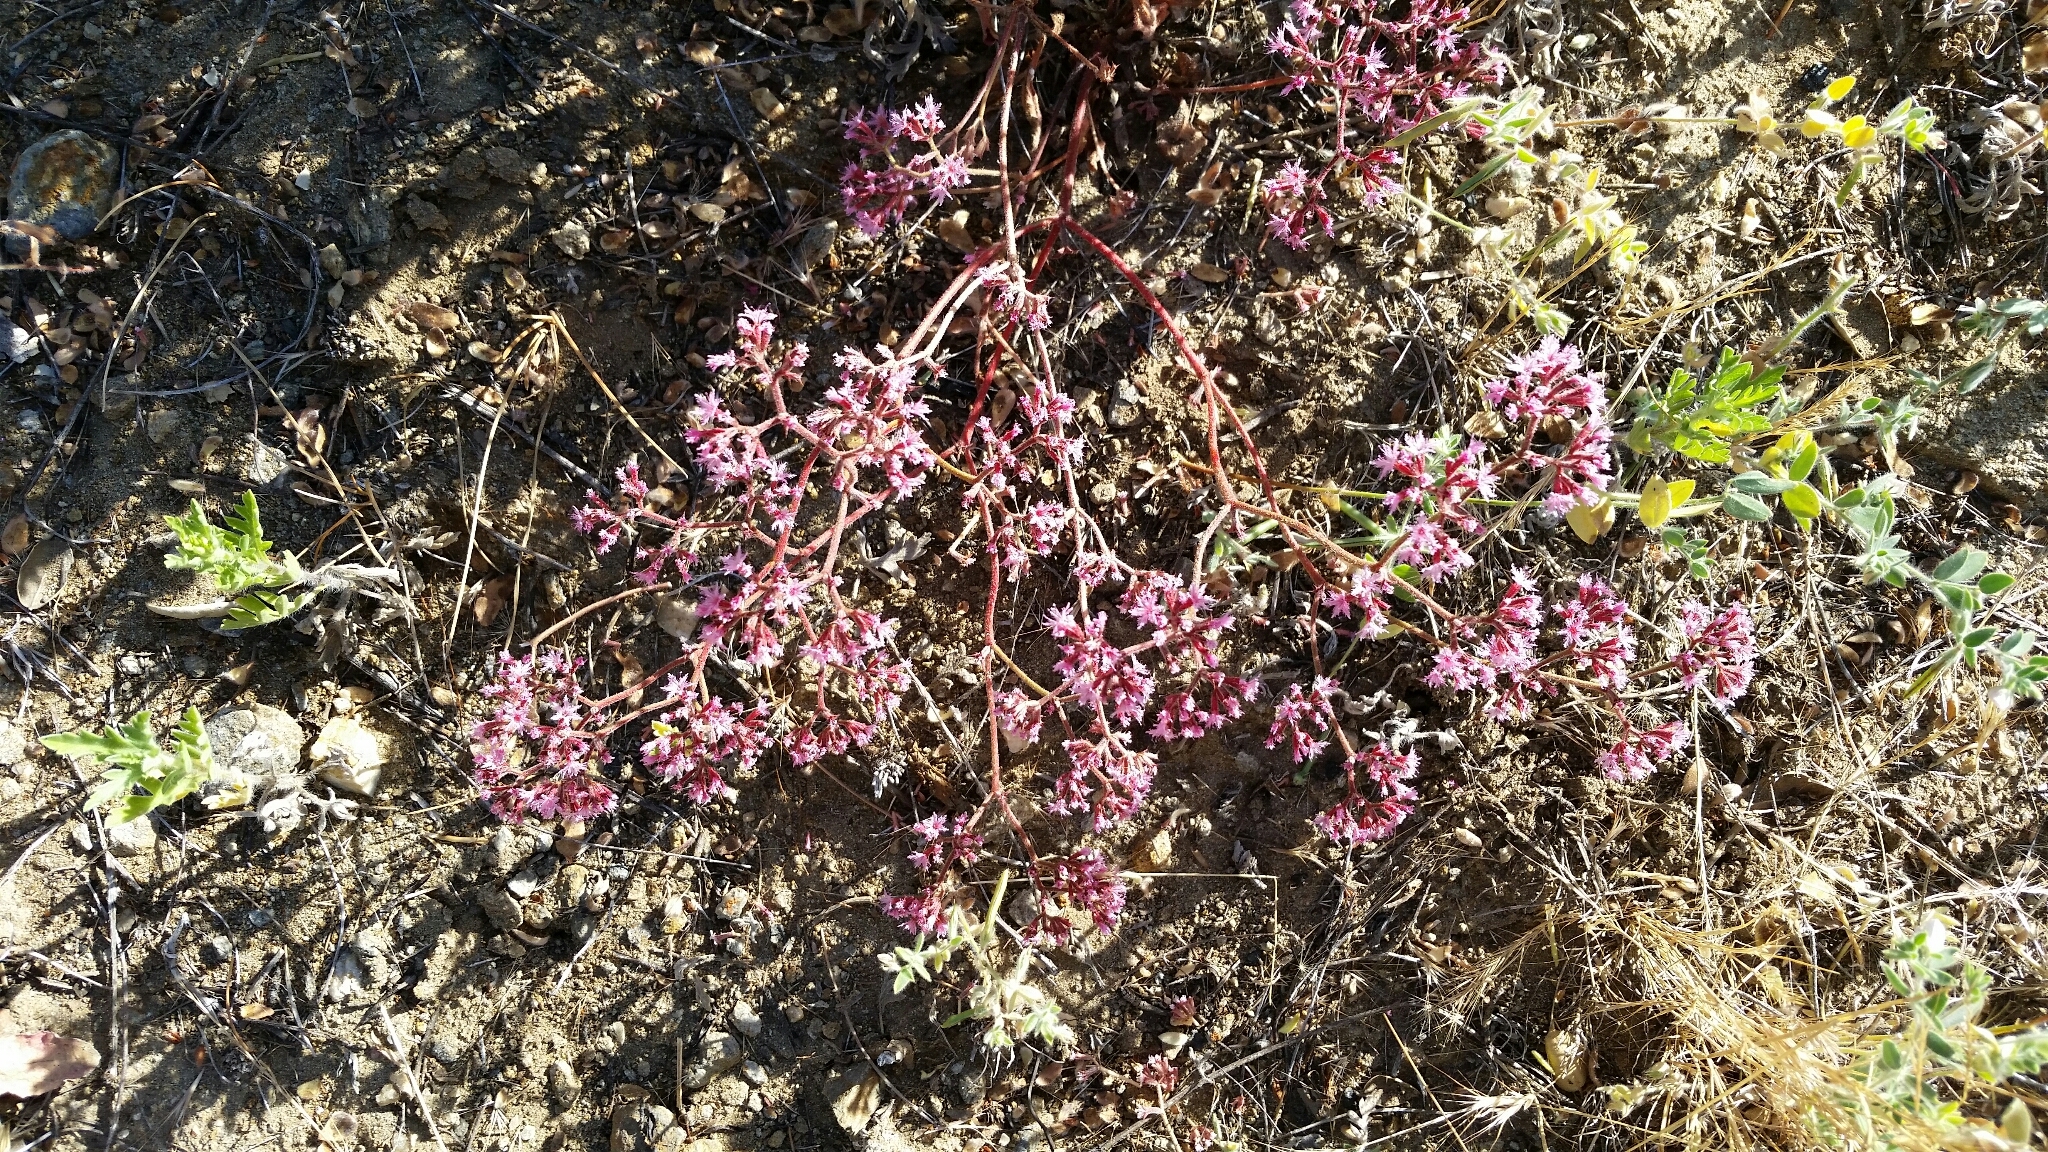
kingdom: Plantae
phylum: Tracheophyta
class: Magnoliopsida
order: Caryophyllales
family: Polygonaceae
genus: Chorizanthe
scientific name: Chorizanthe fimbriata
